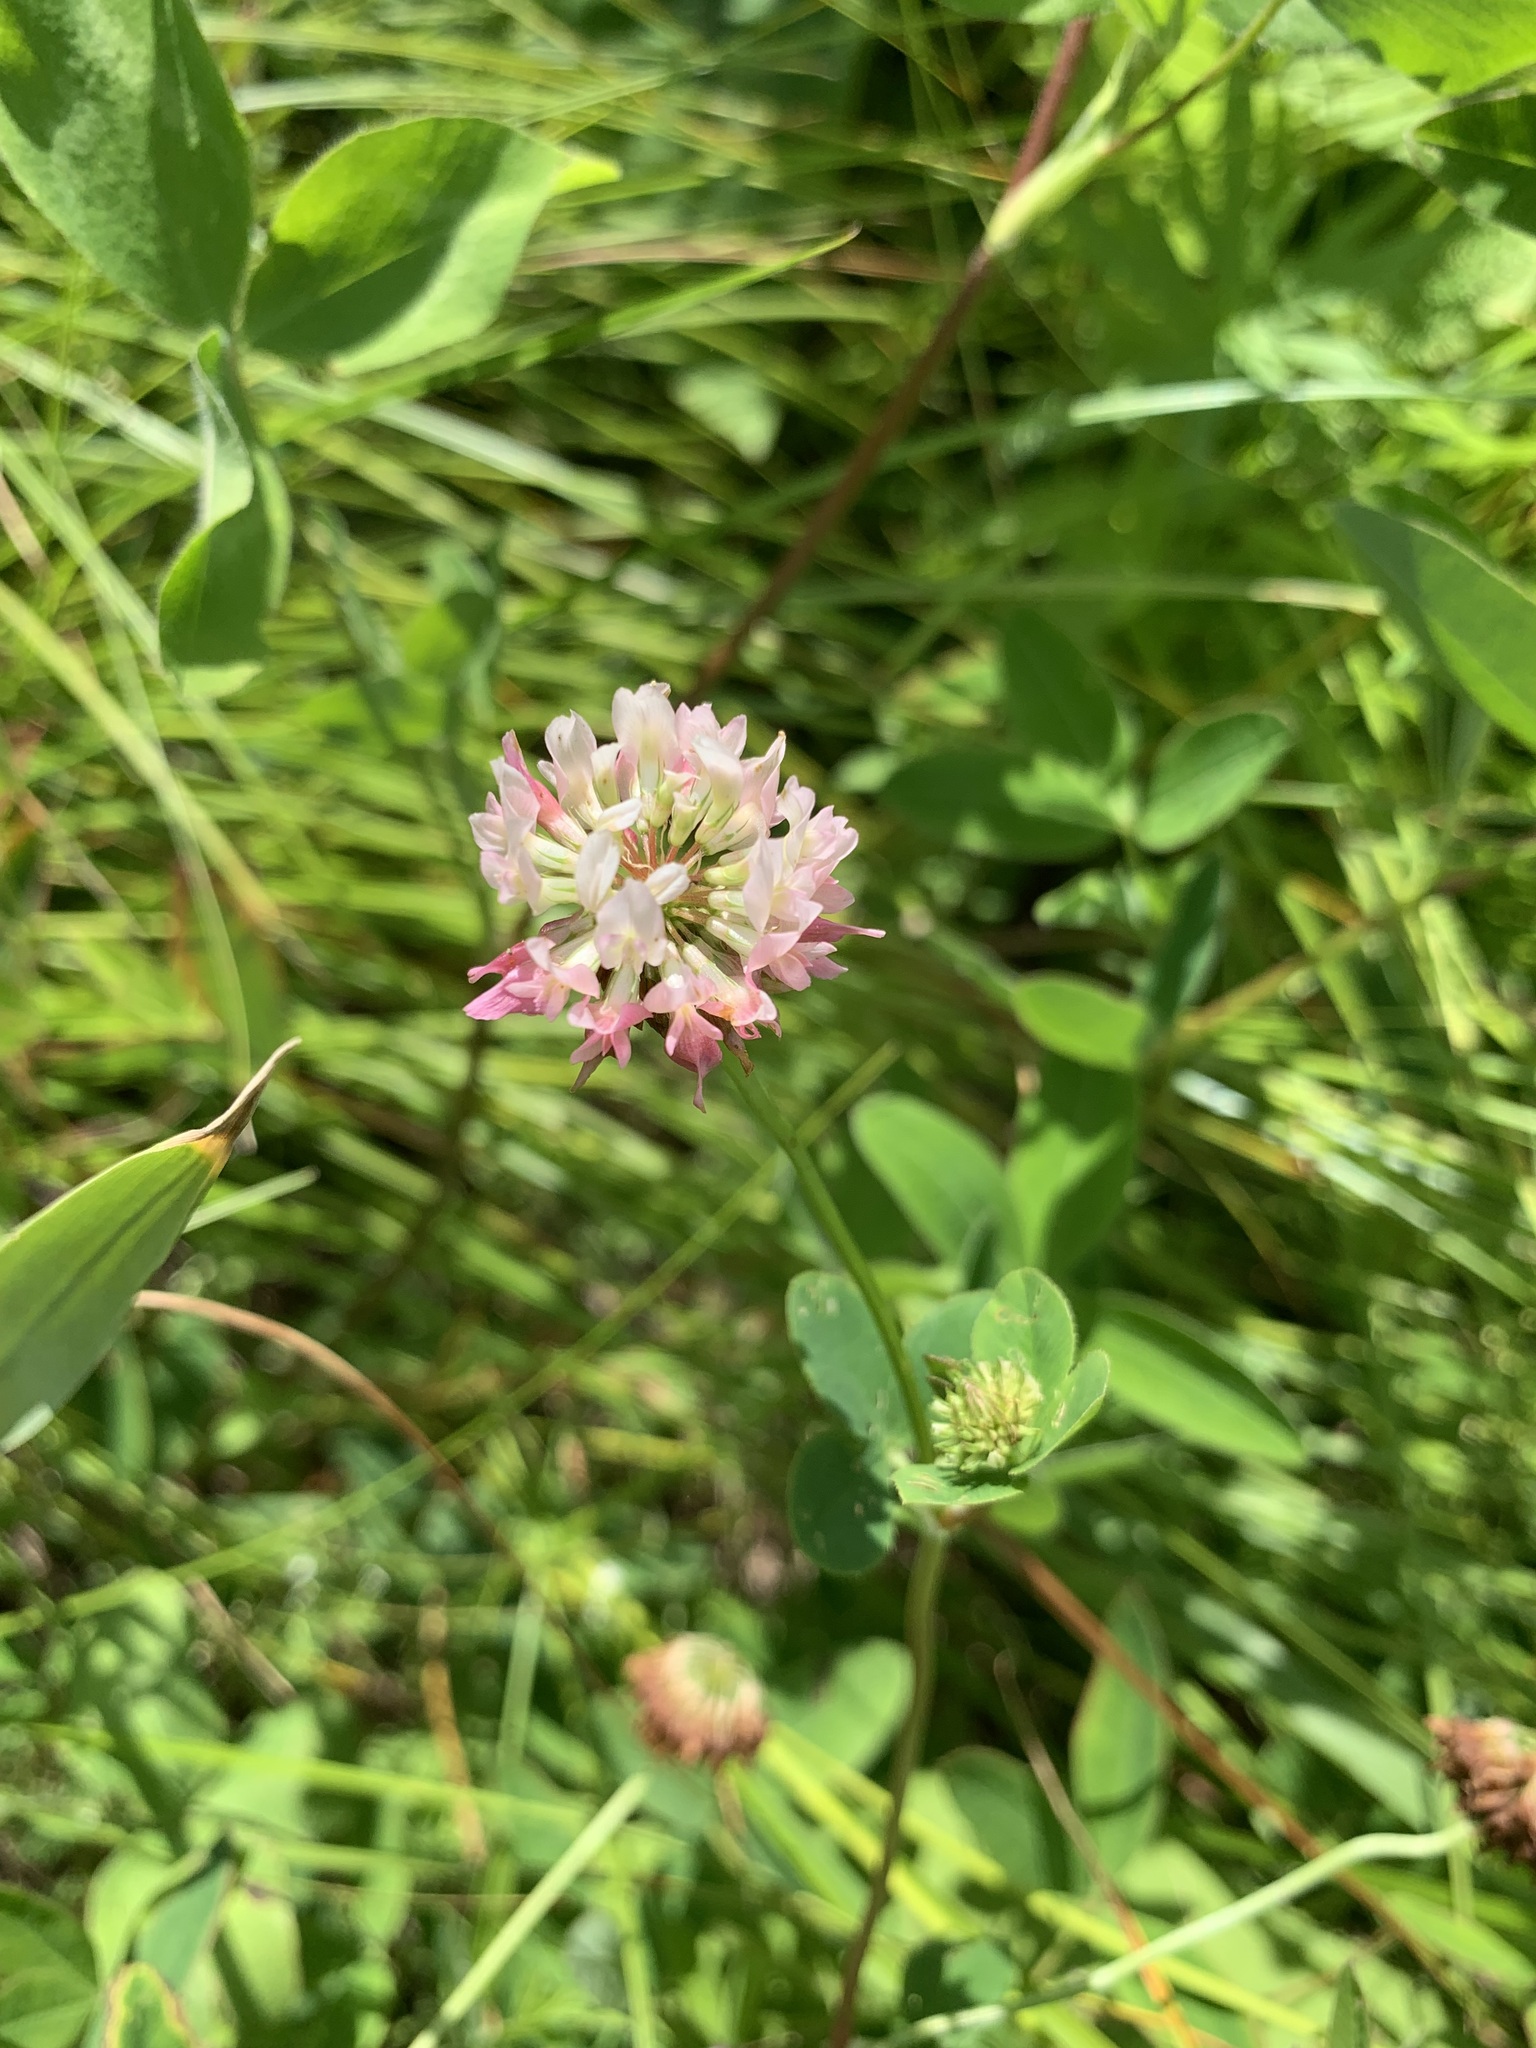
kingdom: Plantae
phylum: Tracheophyta
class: Magnoliopsida
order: Fabales
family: Fabaceae
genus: Trifolium
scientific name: Trifolium hybridum
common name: Alsike clover
